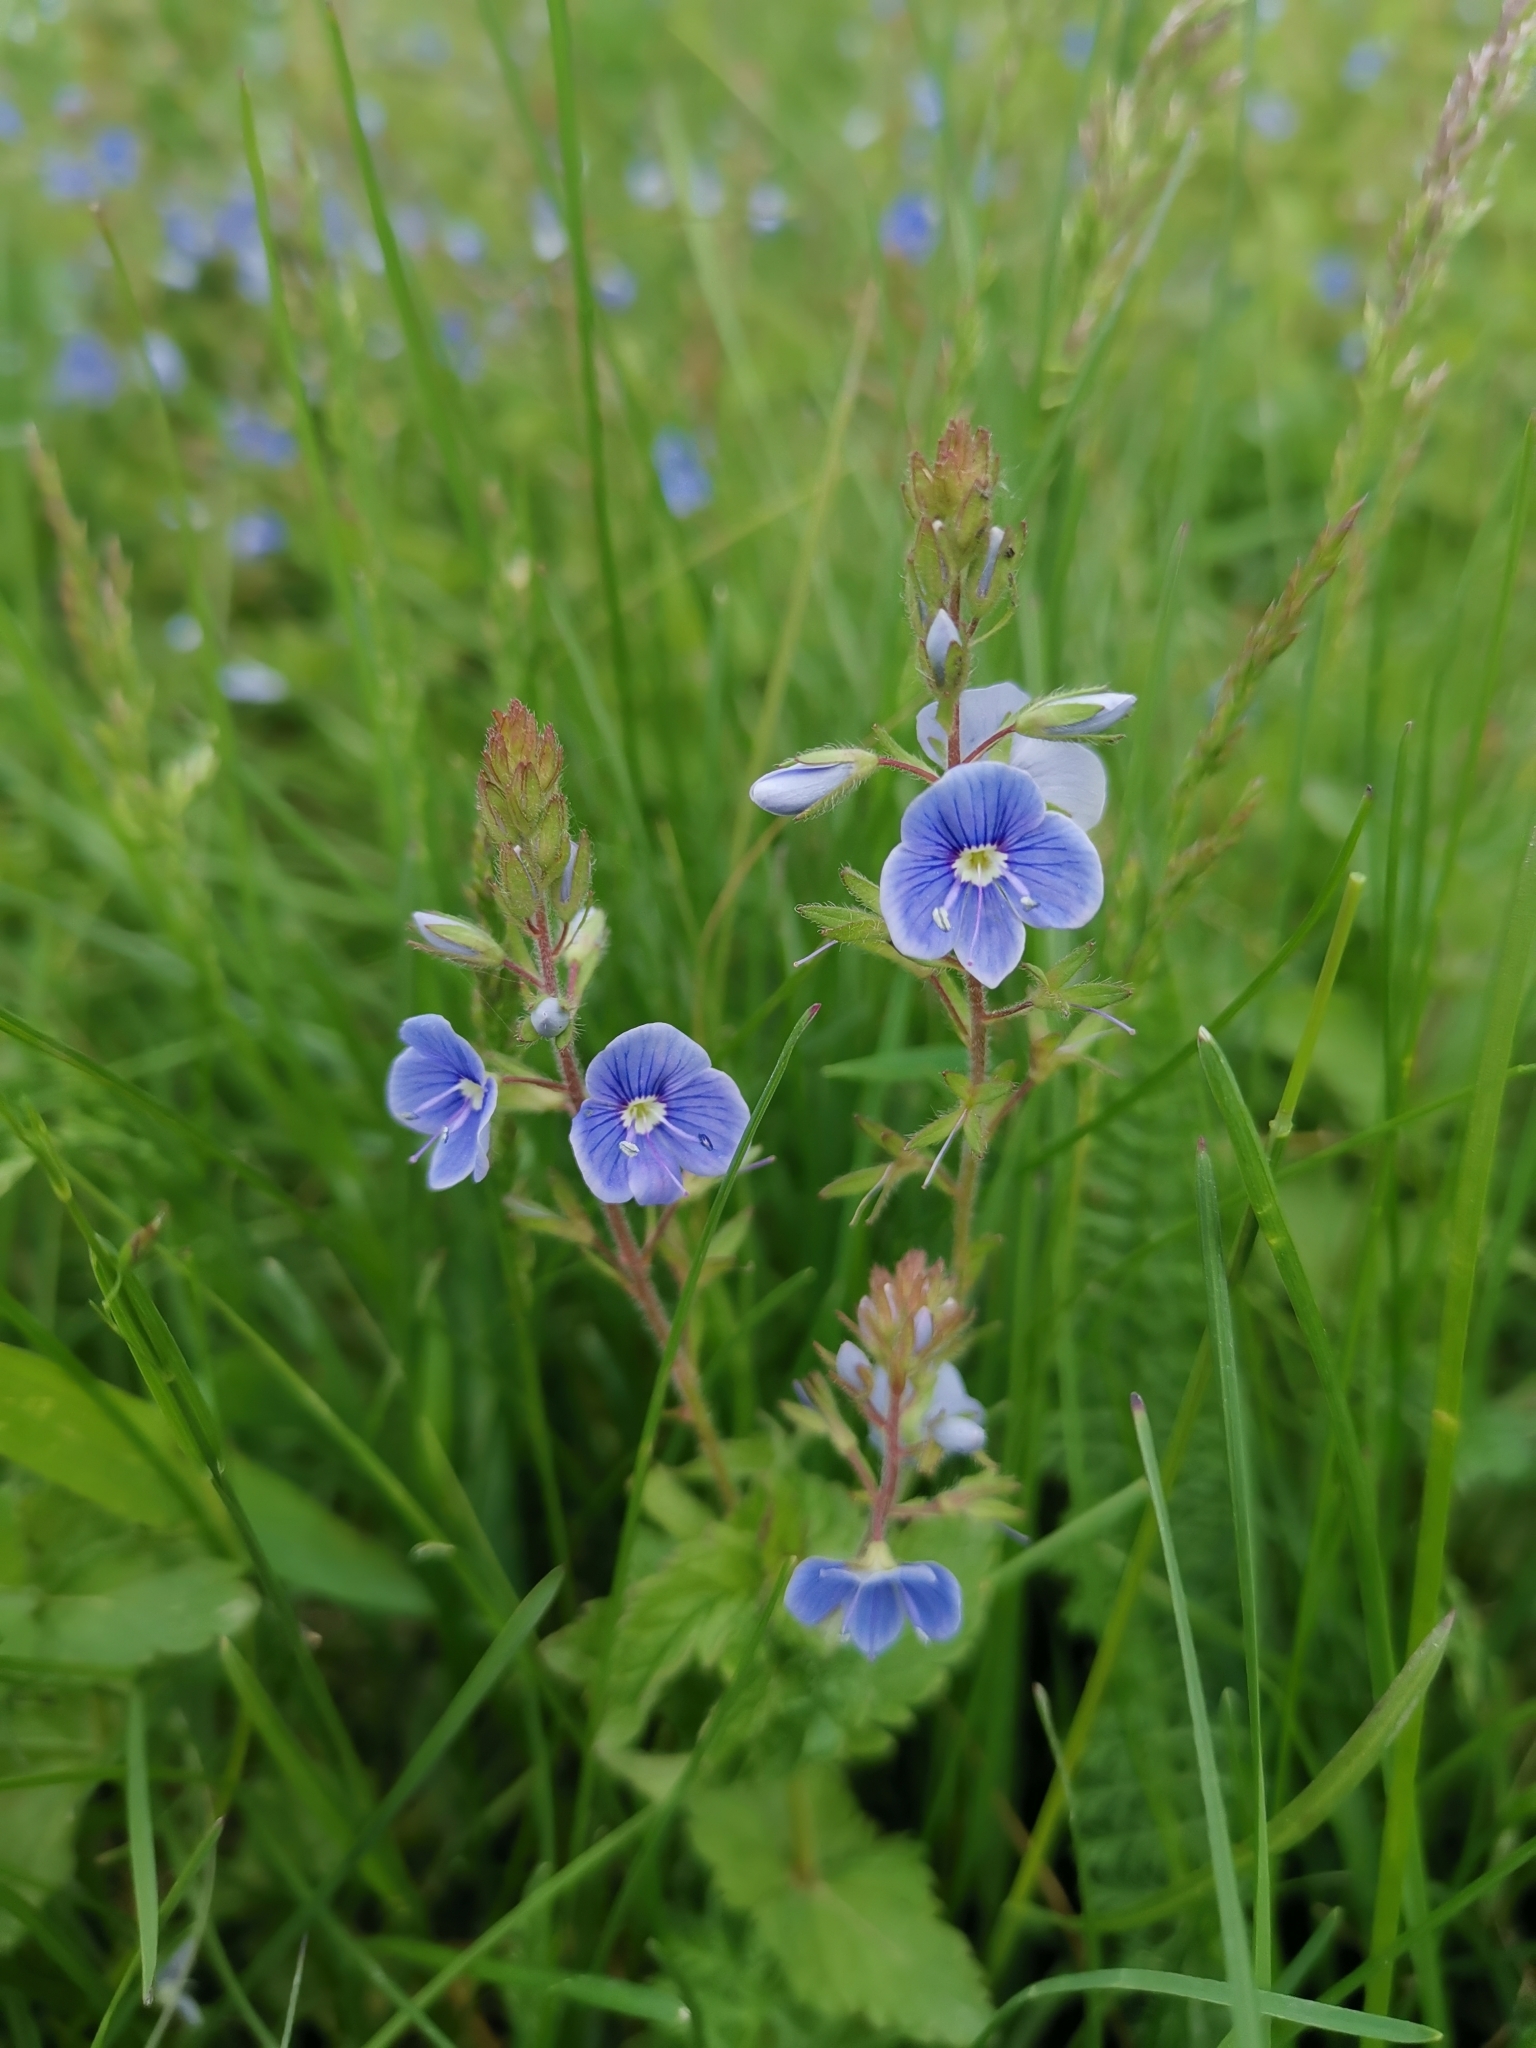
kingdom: Plantae
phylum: Tracheophyta
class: Magnoliopsida
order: Lamiales
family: Plantaginaceae
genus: Veronica
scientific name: Veronica chamaedrys
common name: Germander speedwell
